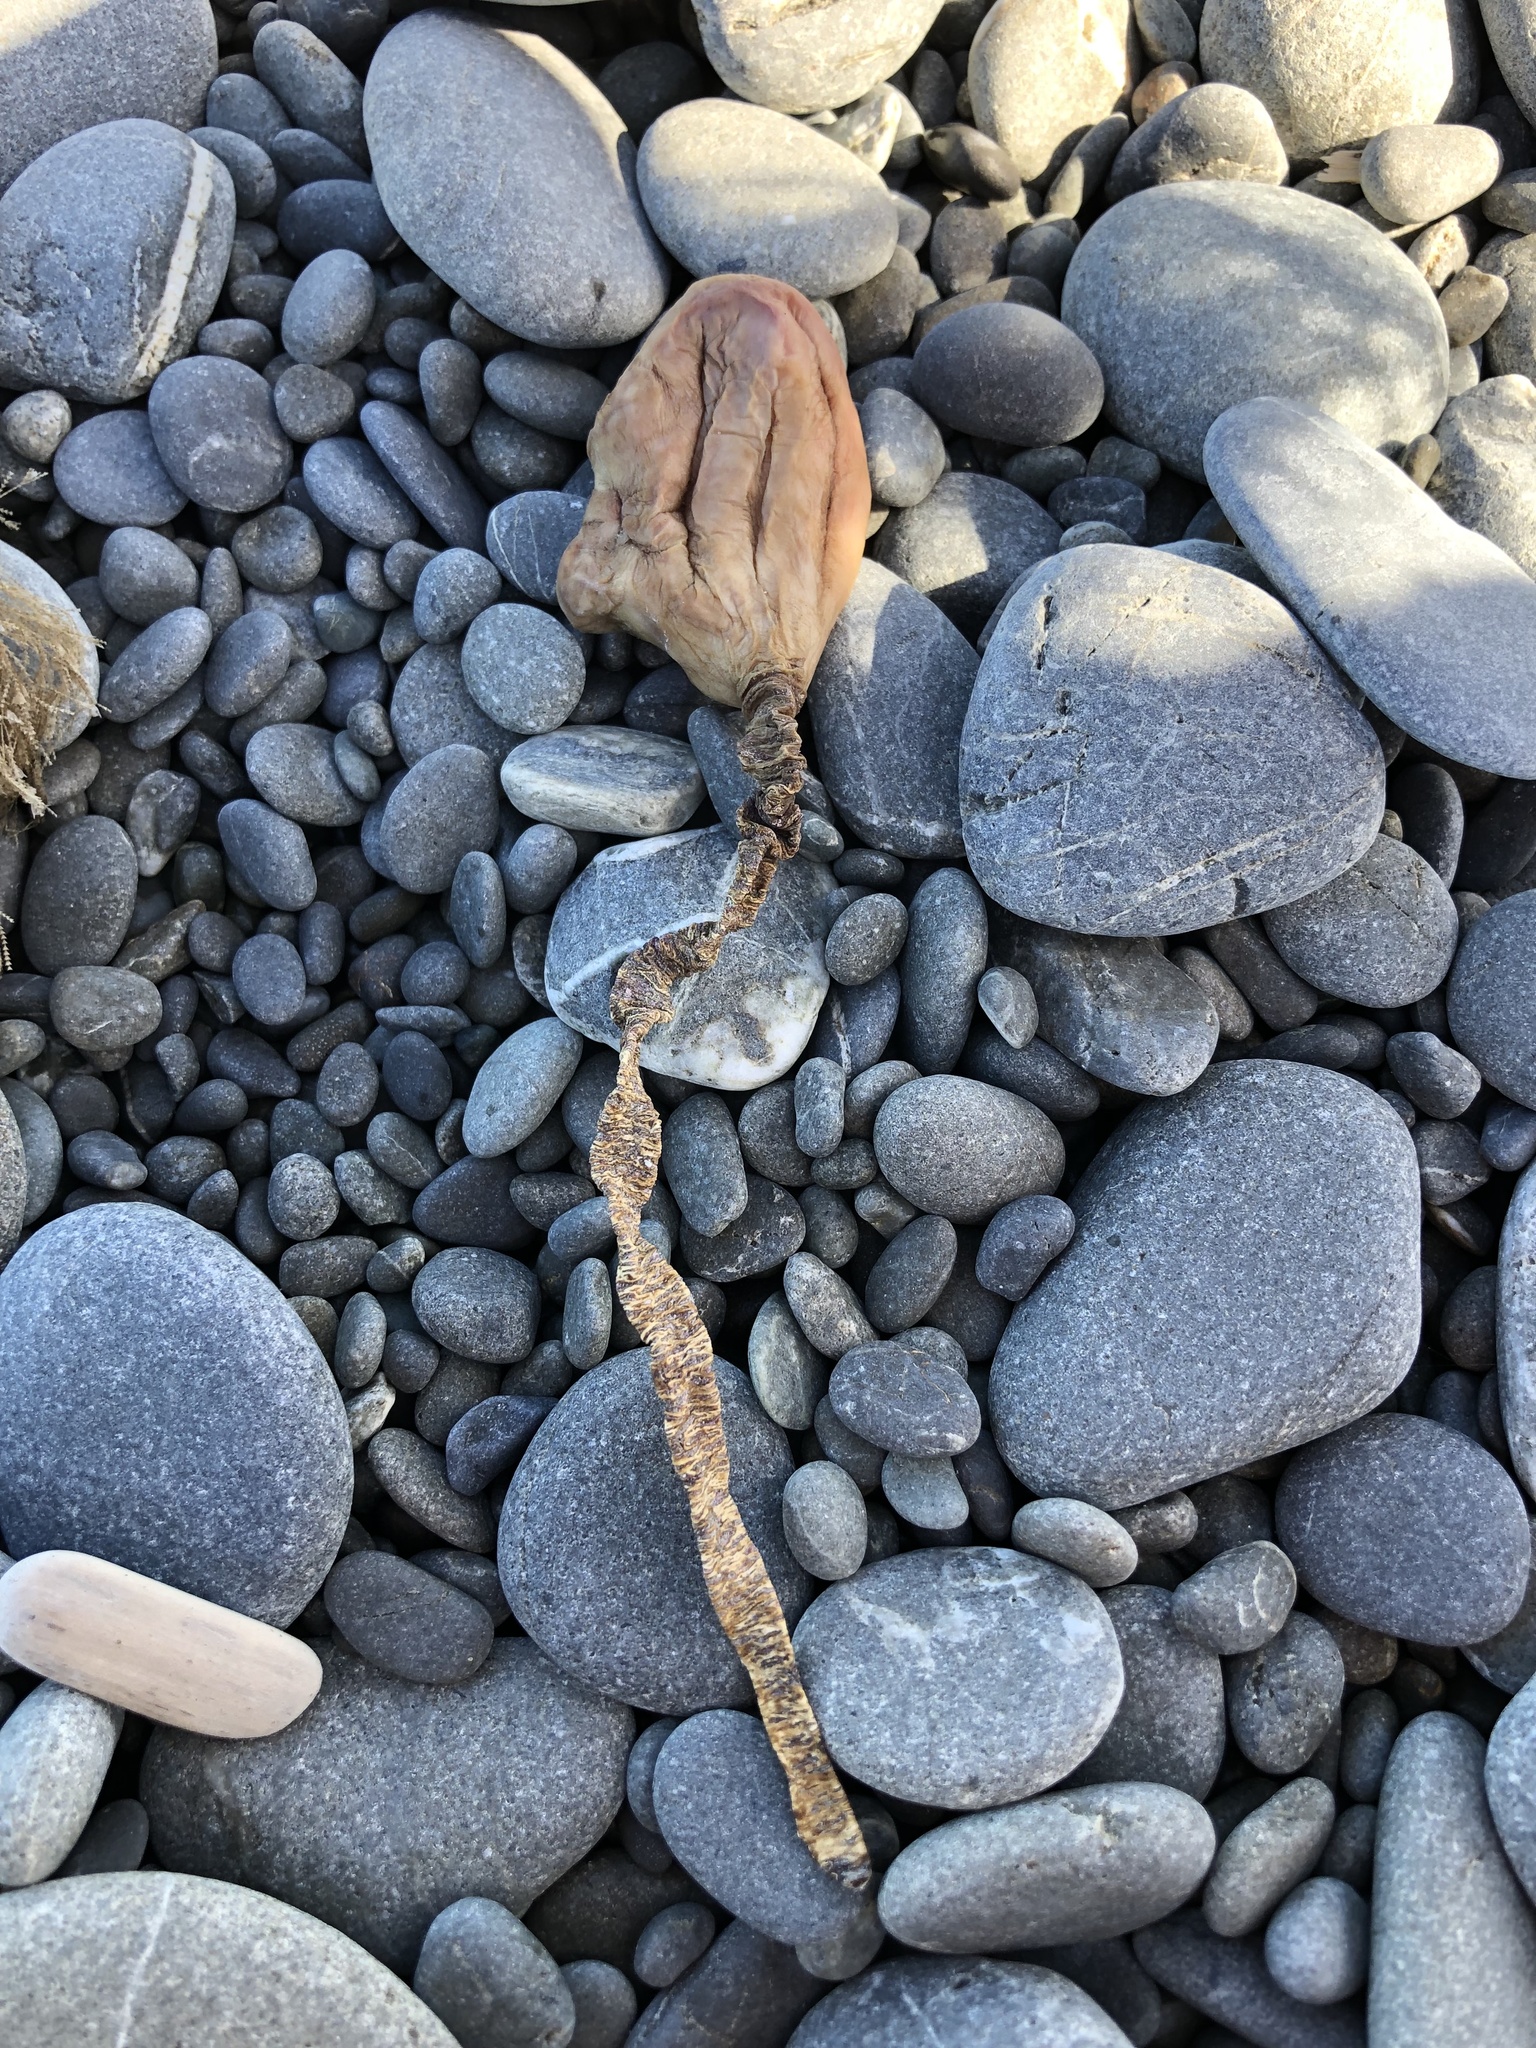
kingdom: Animalia
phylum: Chordata
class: Ascidiacea
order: Stolidobranchia
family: Pyuridae
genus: Pyura
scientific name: Pyura pachydermatina
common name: Sea tulip
